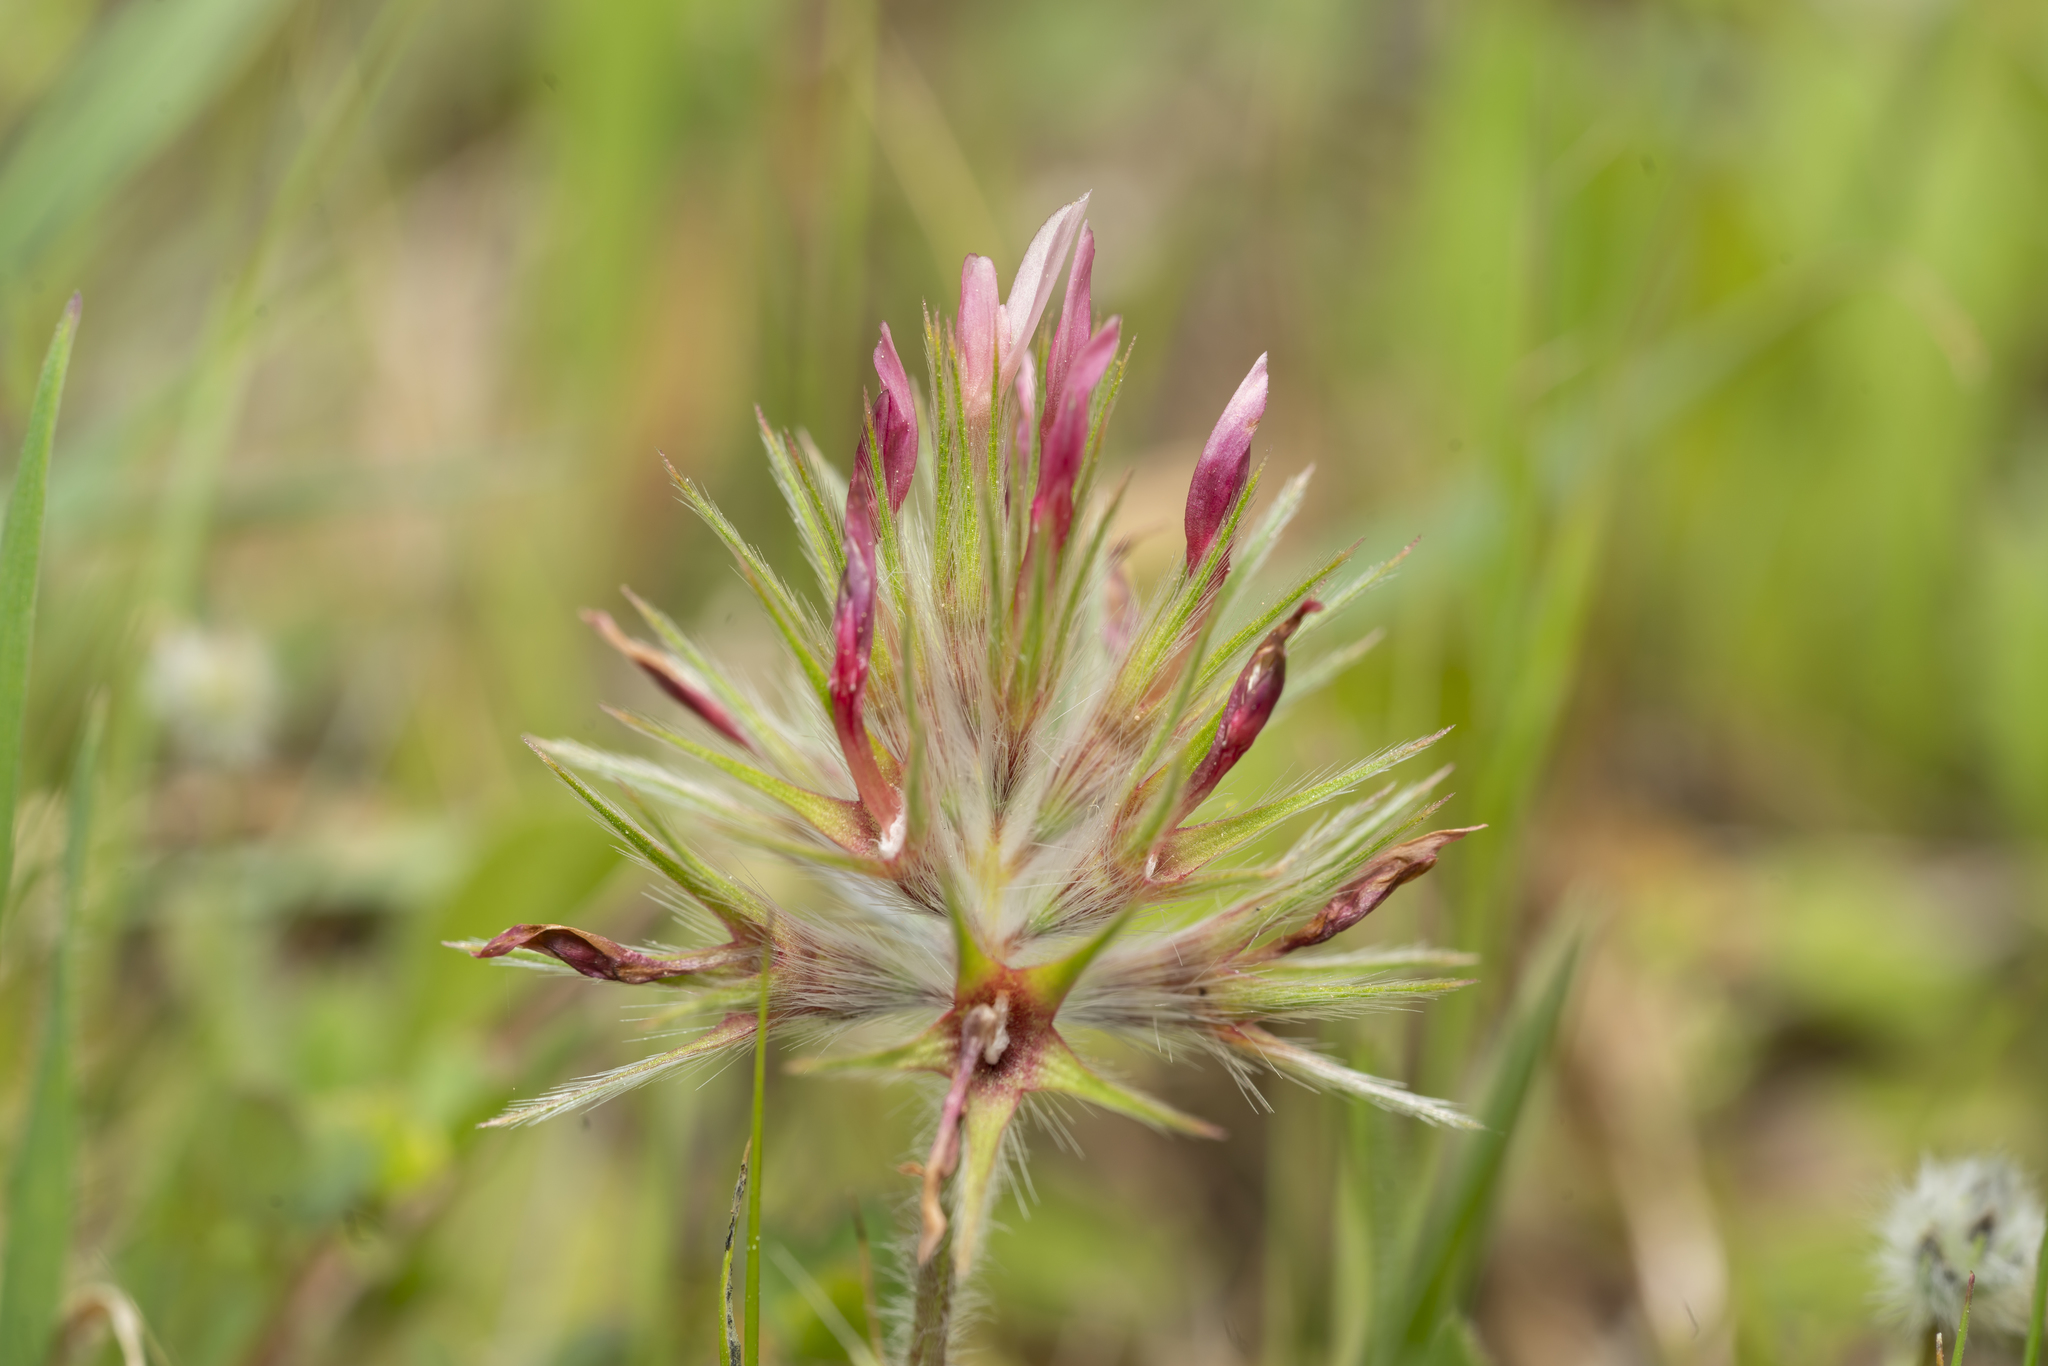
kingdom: Plantae
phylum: Tracheophyta
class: Magnoliopsida
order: Fabales
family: Fabaceae
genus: Trifolium
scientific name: Trifolium stellatum
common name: Starry clover
